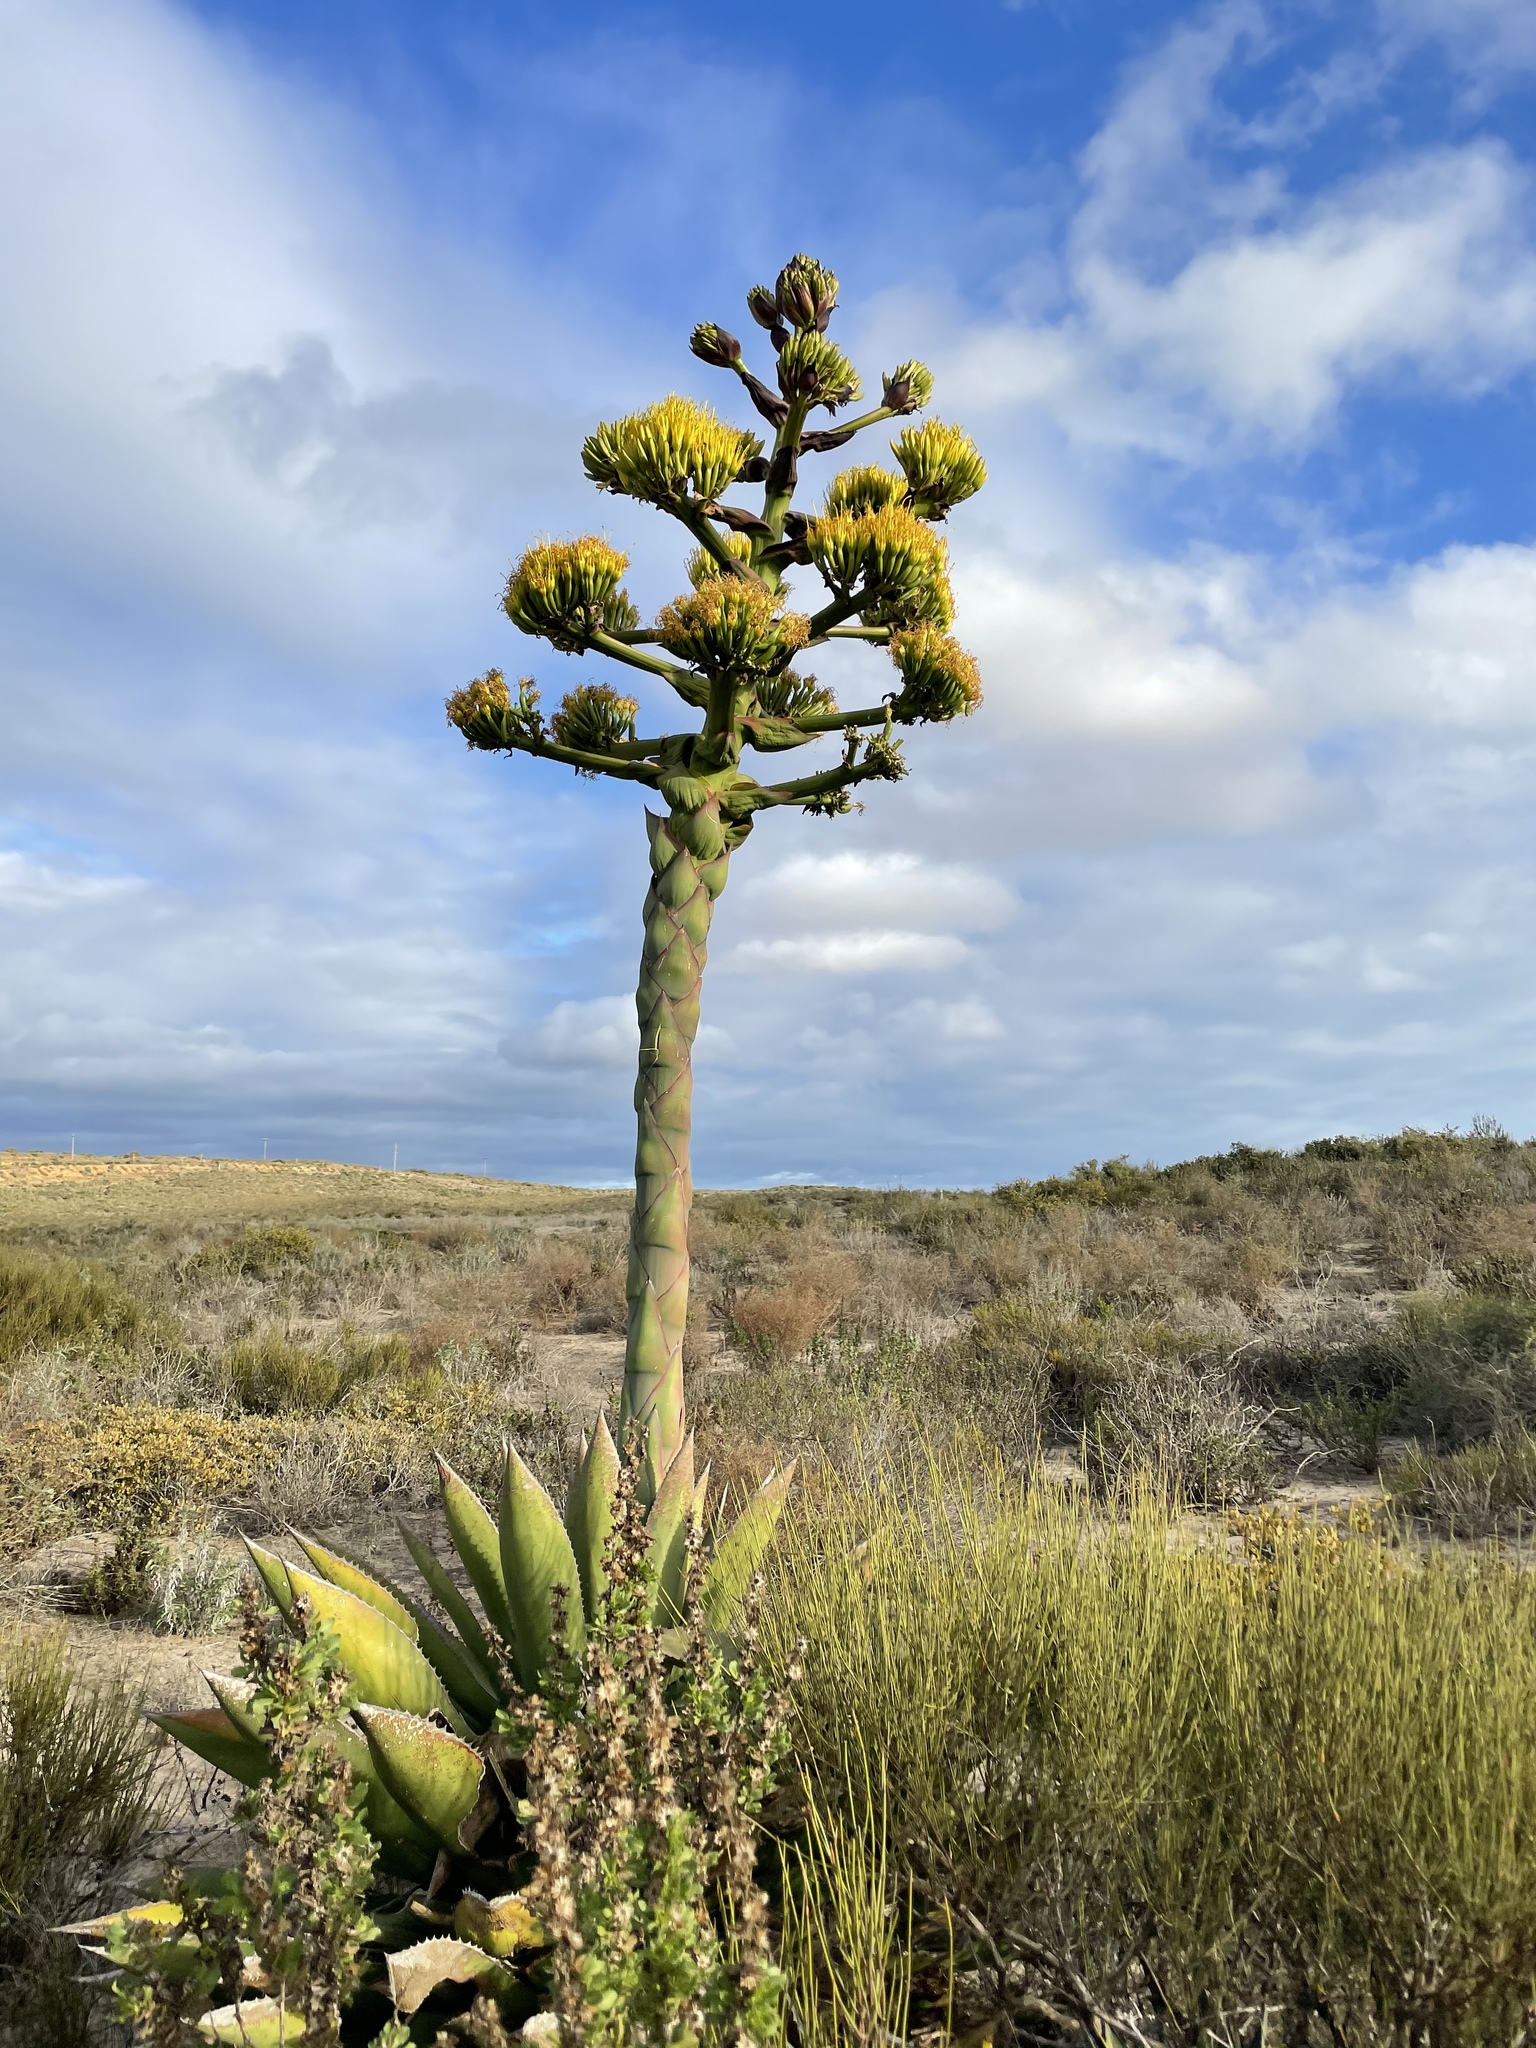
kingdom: Plantae
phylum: Tracheophyta
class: Liliopsida
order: Asparagales
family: Asparagaceae
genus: Agave
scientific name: Agave shawii
